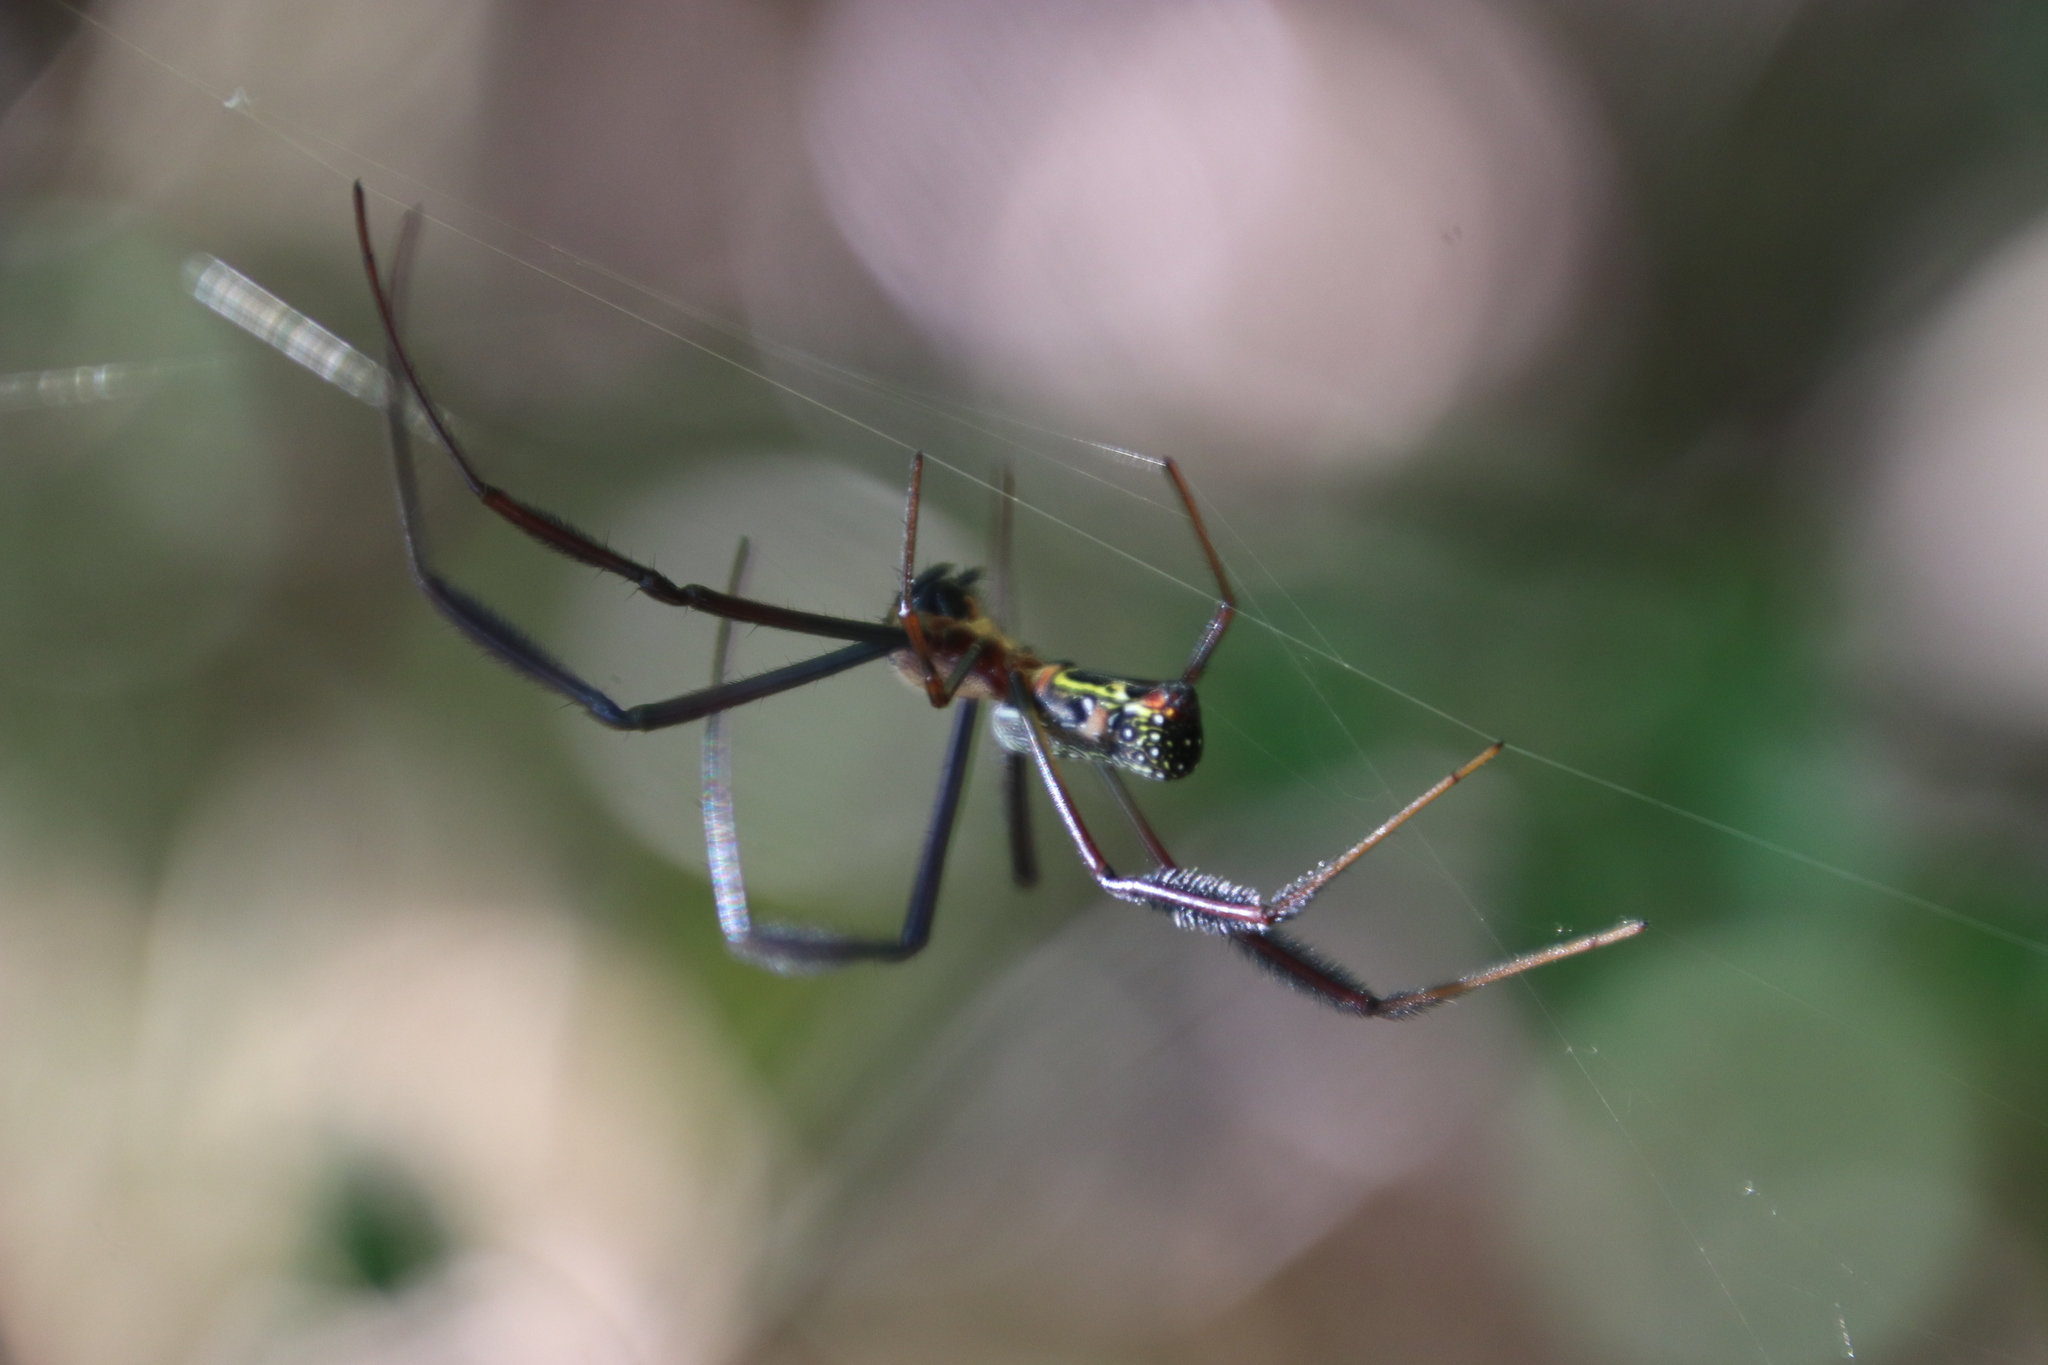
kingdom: Animalia
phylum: Arthropoda
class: Arachnida
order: Araneae
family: Araneidae
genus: Trichonephila
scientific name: Trichonephila fenestrata
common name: Hairy golden orb weaver
